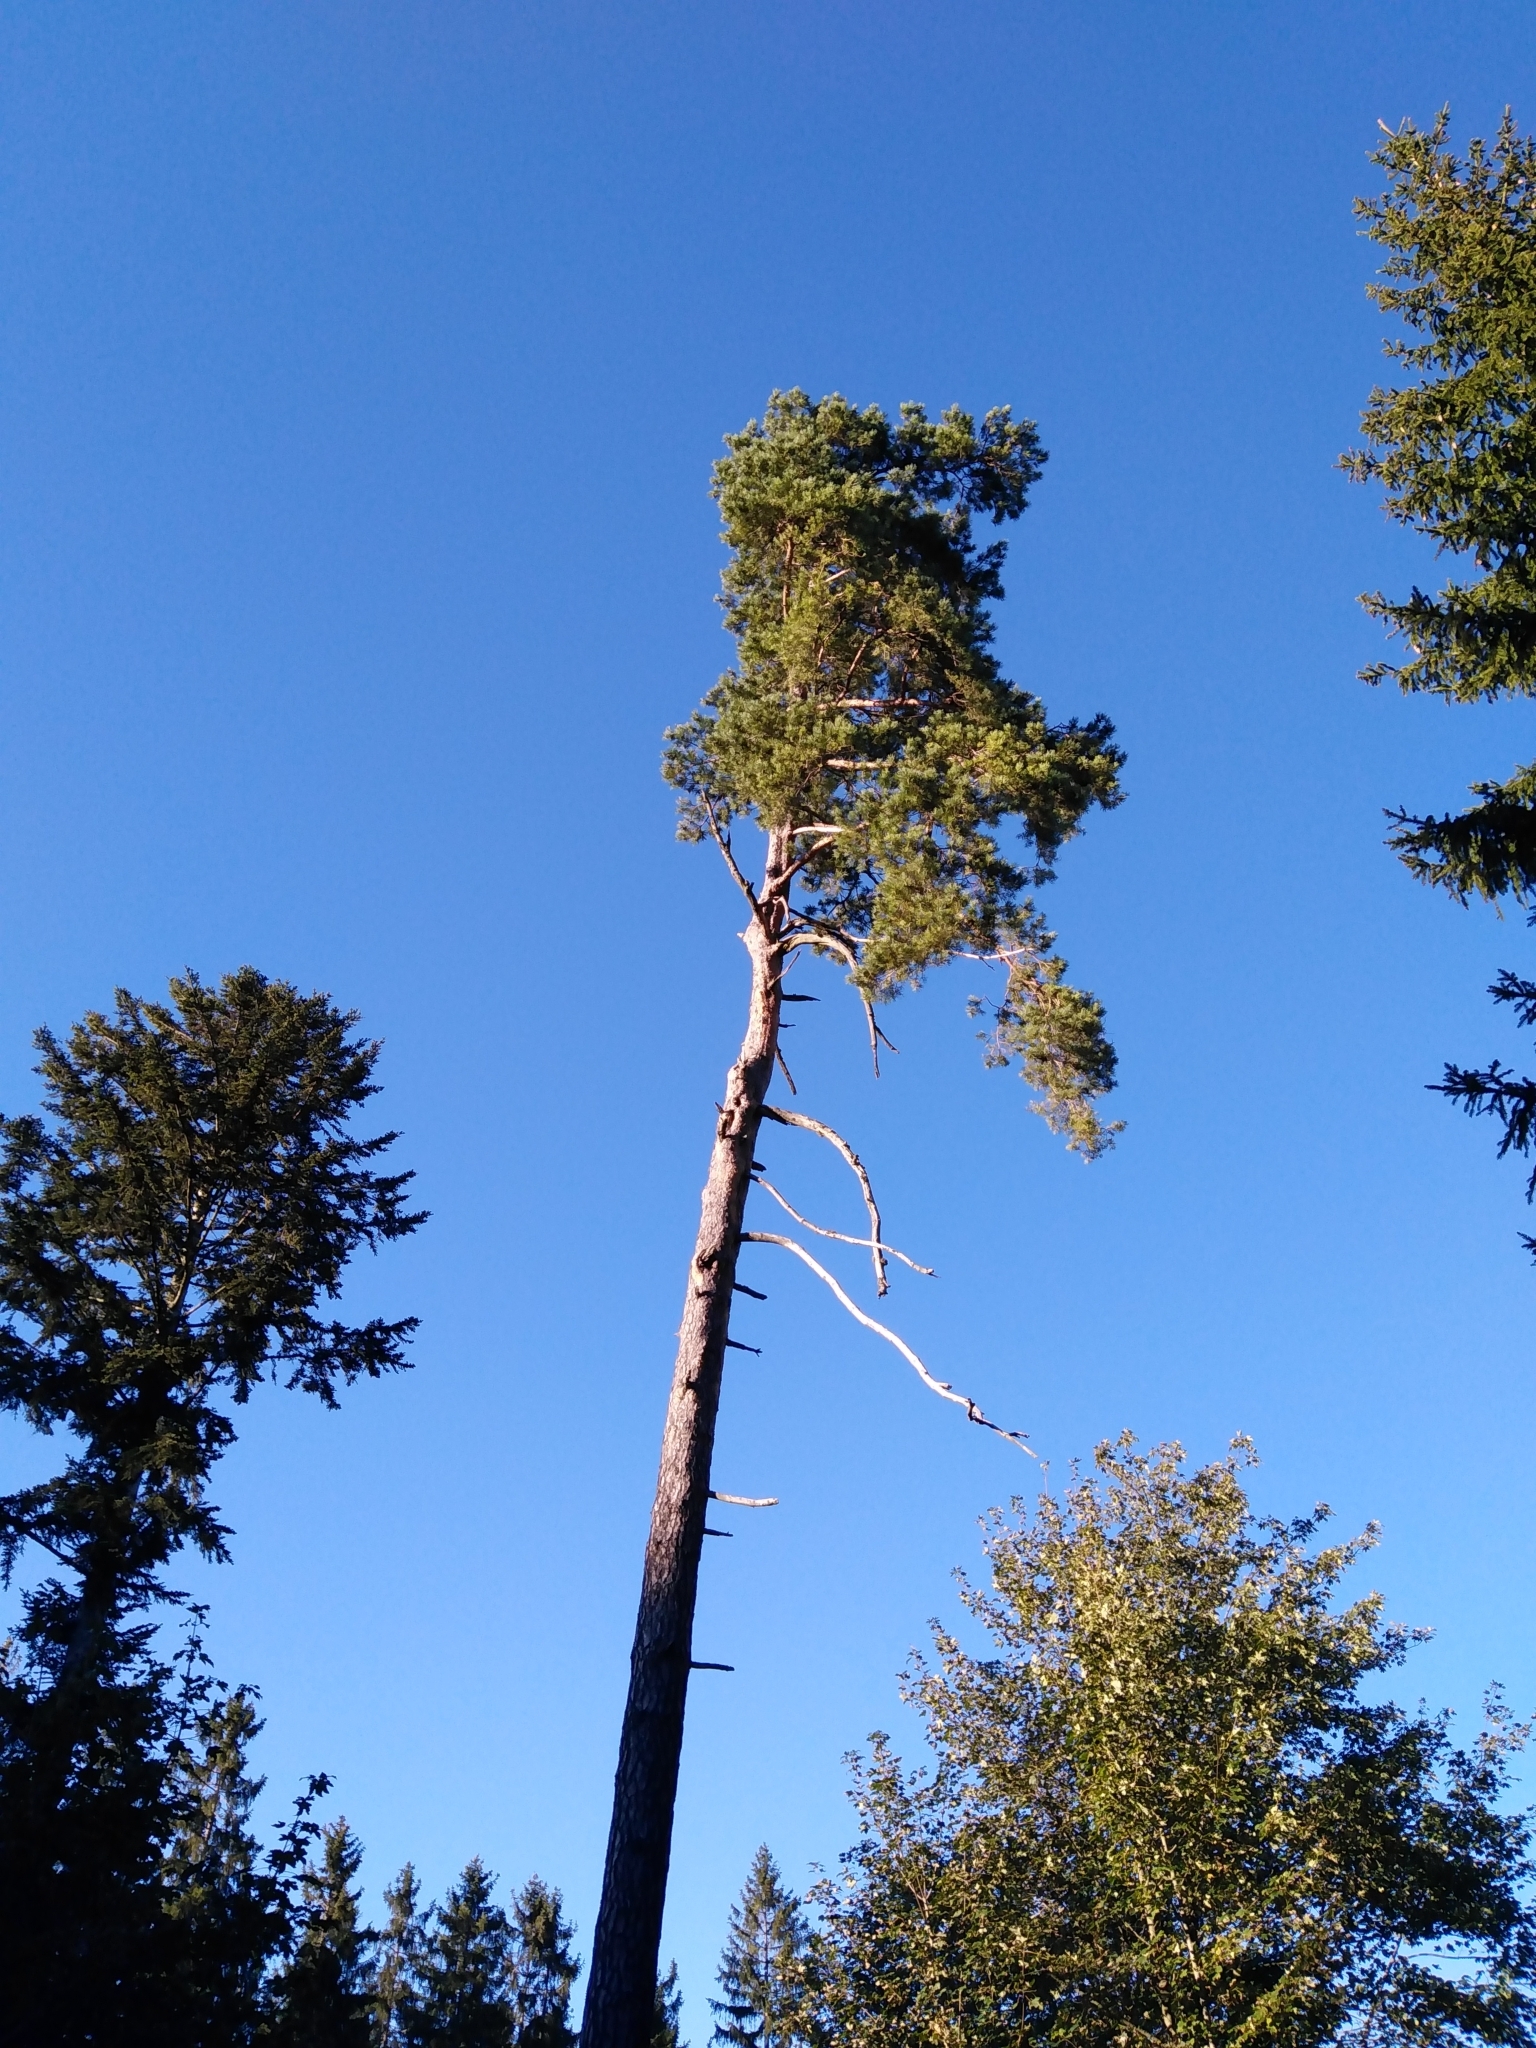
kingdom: Plantae
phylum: Tracheophyta
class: Pinopsida
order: Pinales
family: Pinaceae
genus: Pinus
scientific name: Pinus sylvestris
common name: Scots pine
